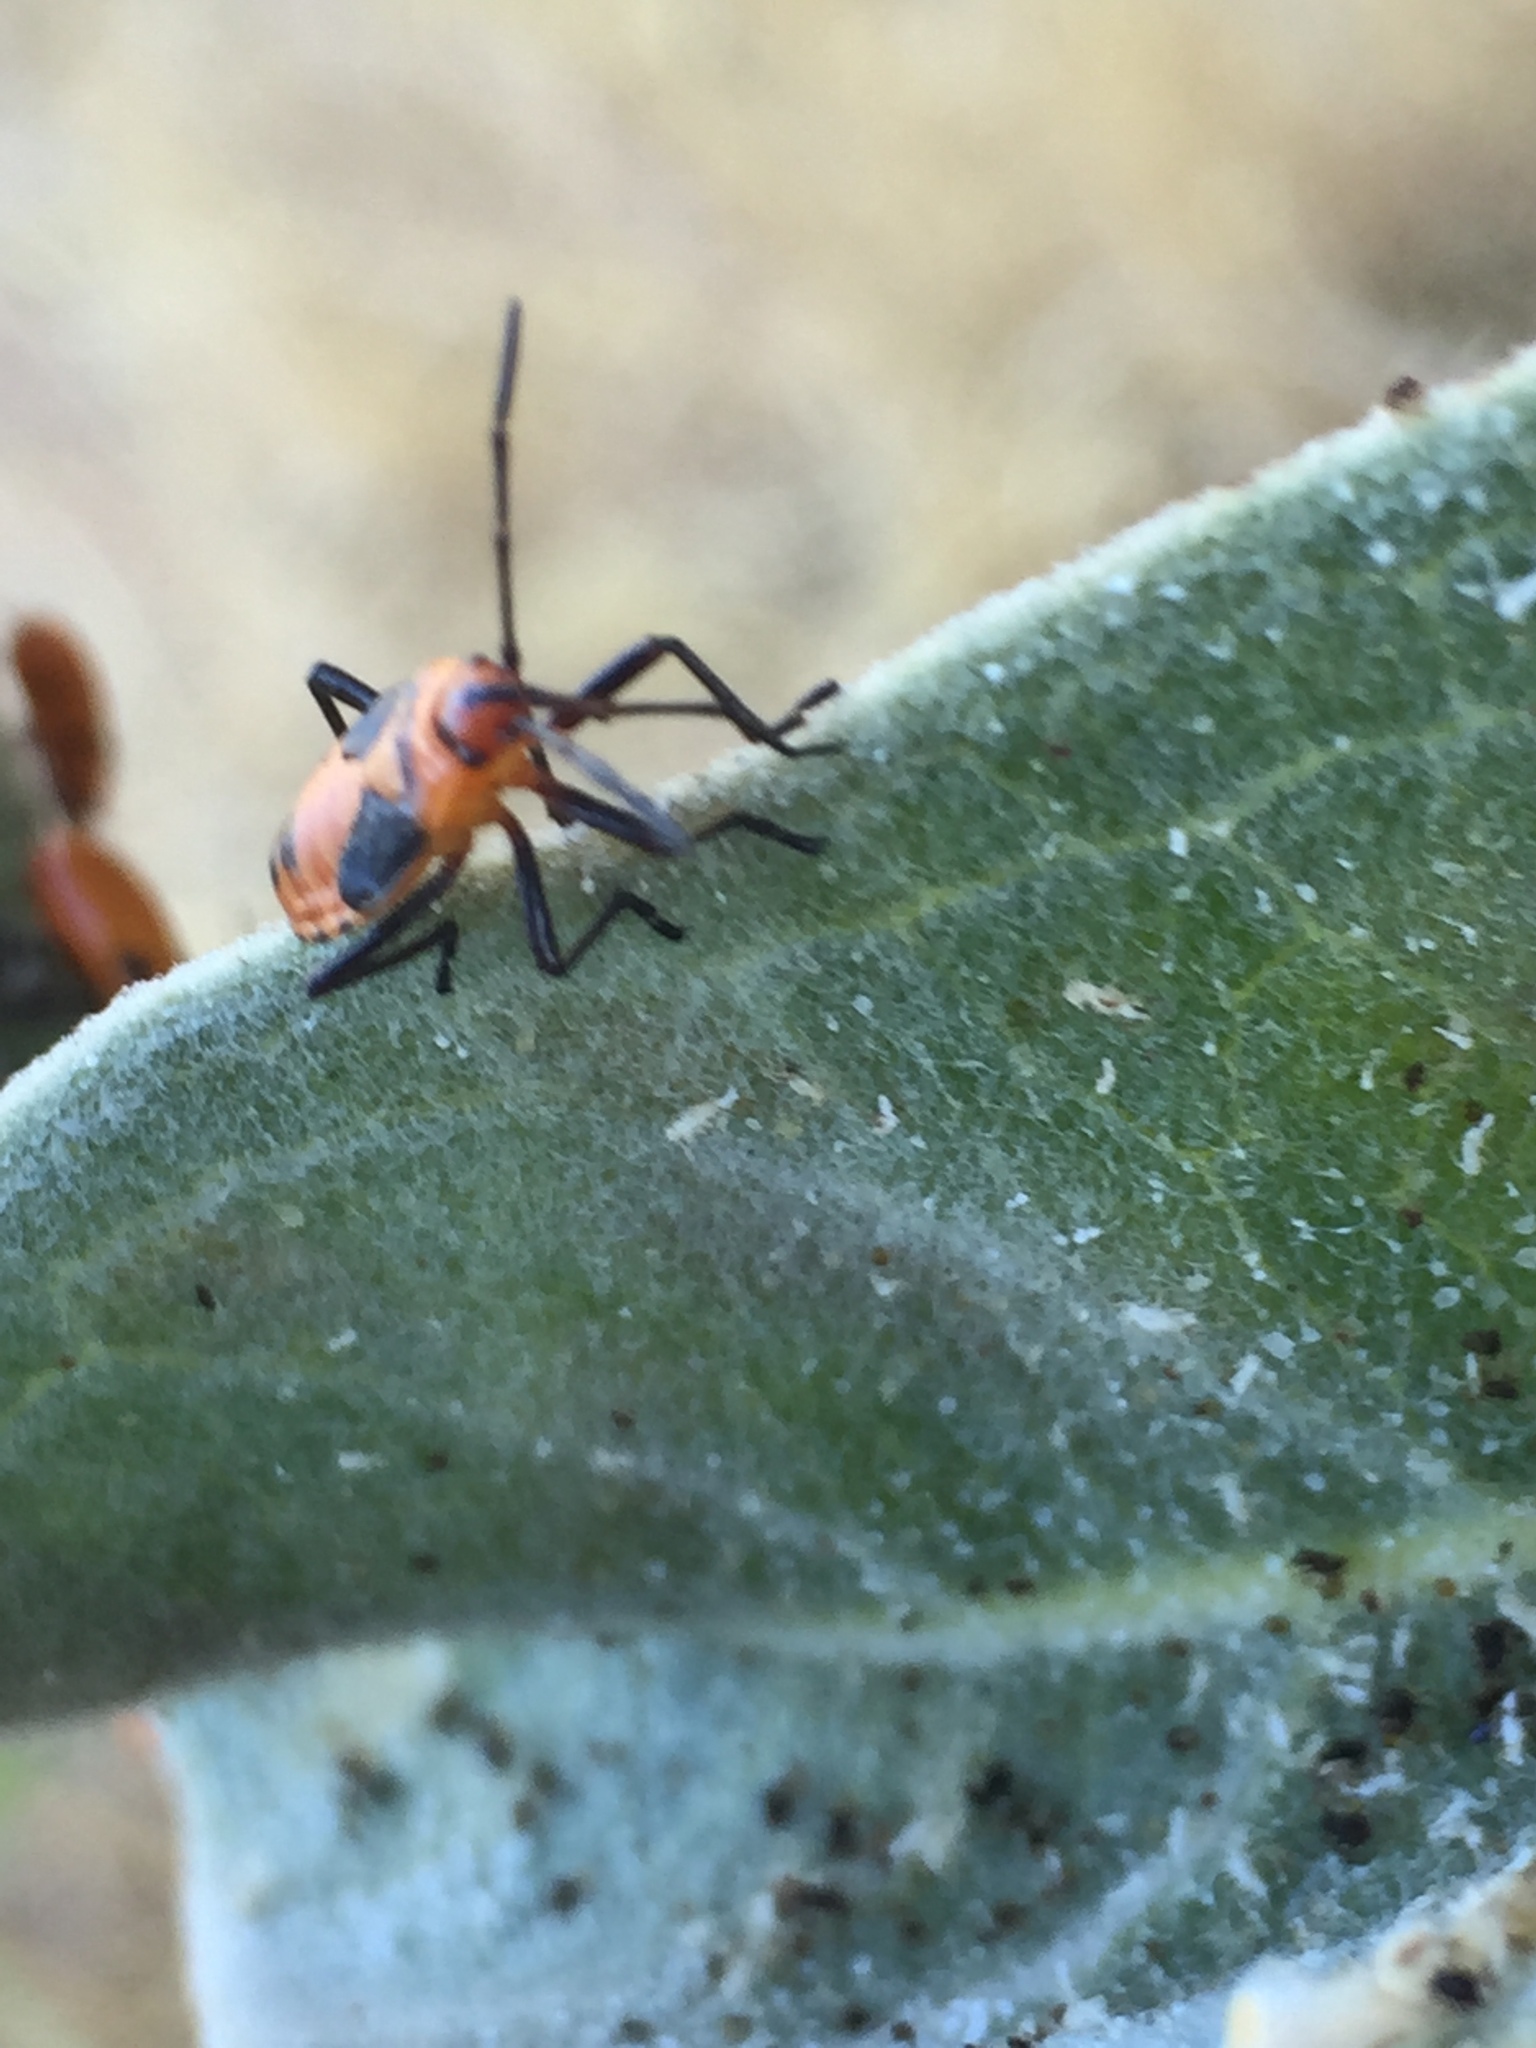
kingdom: Animalia
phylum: Arthropoda
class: Insecta
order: Hemiptera
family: Lygaeidae
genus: Oncopeltus
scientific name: Oncopeltus fasciatus
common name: Large milkweed bug
